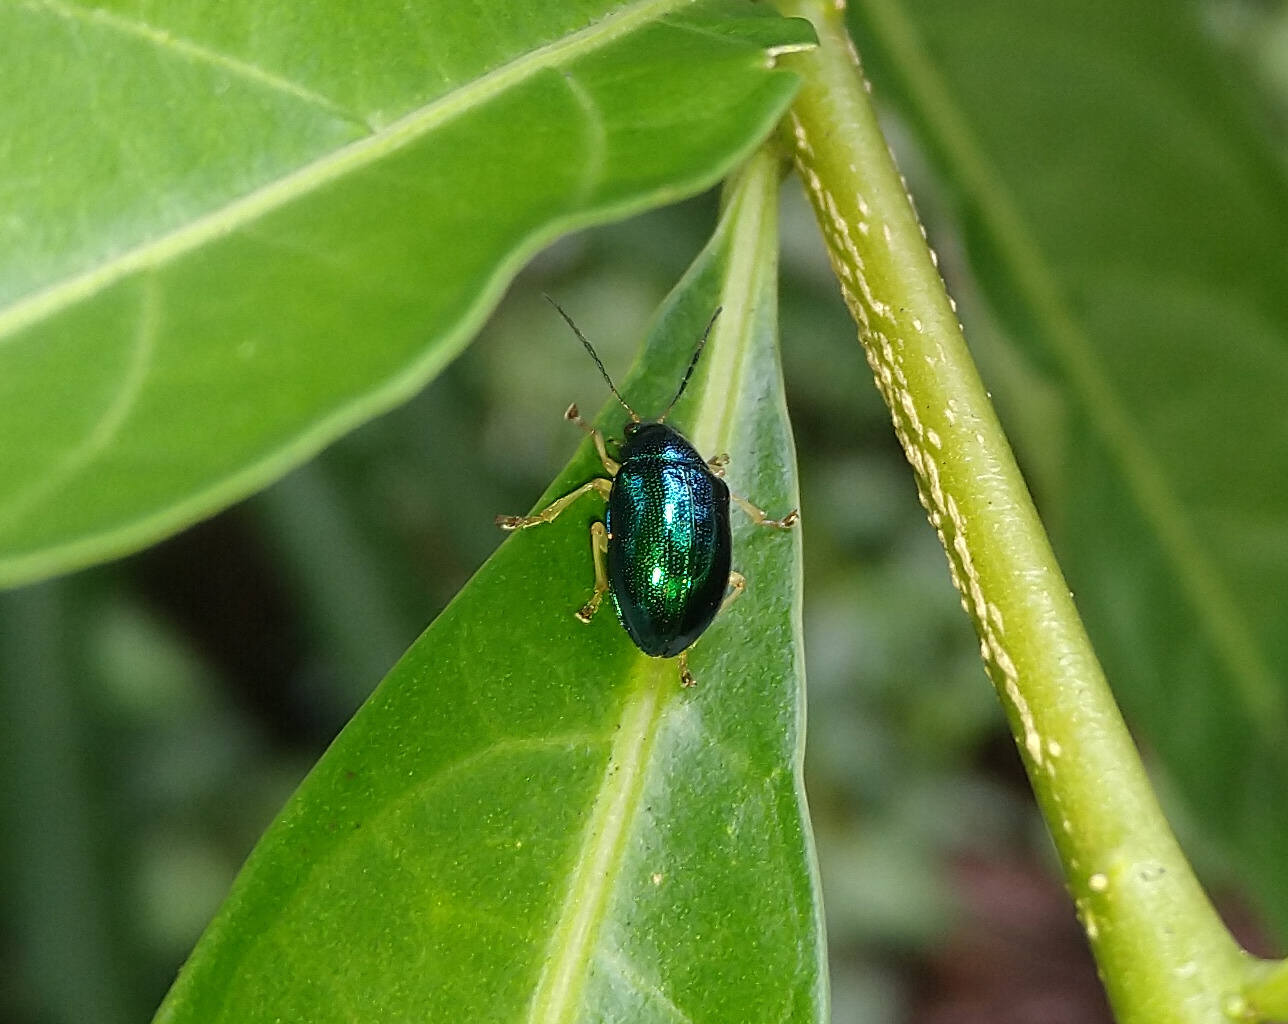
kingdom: Animalia
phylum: Arthropoda
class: Insecta
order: Coleoptera
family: Chrysomelidae
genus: Colaspis
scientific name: Colaspis
